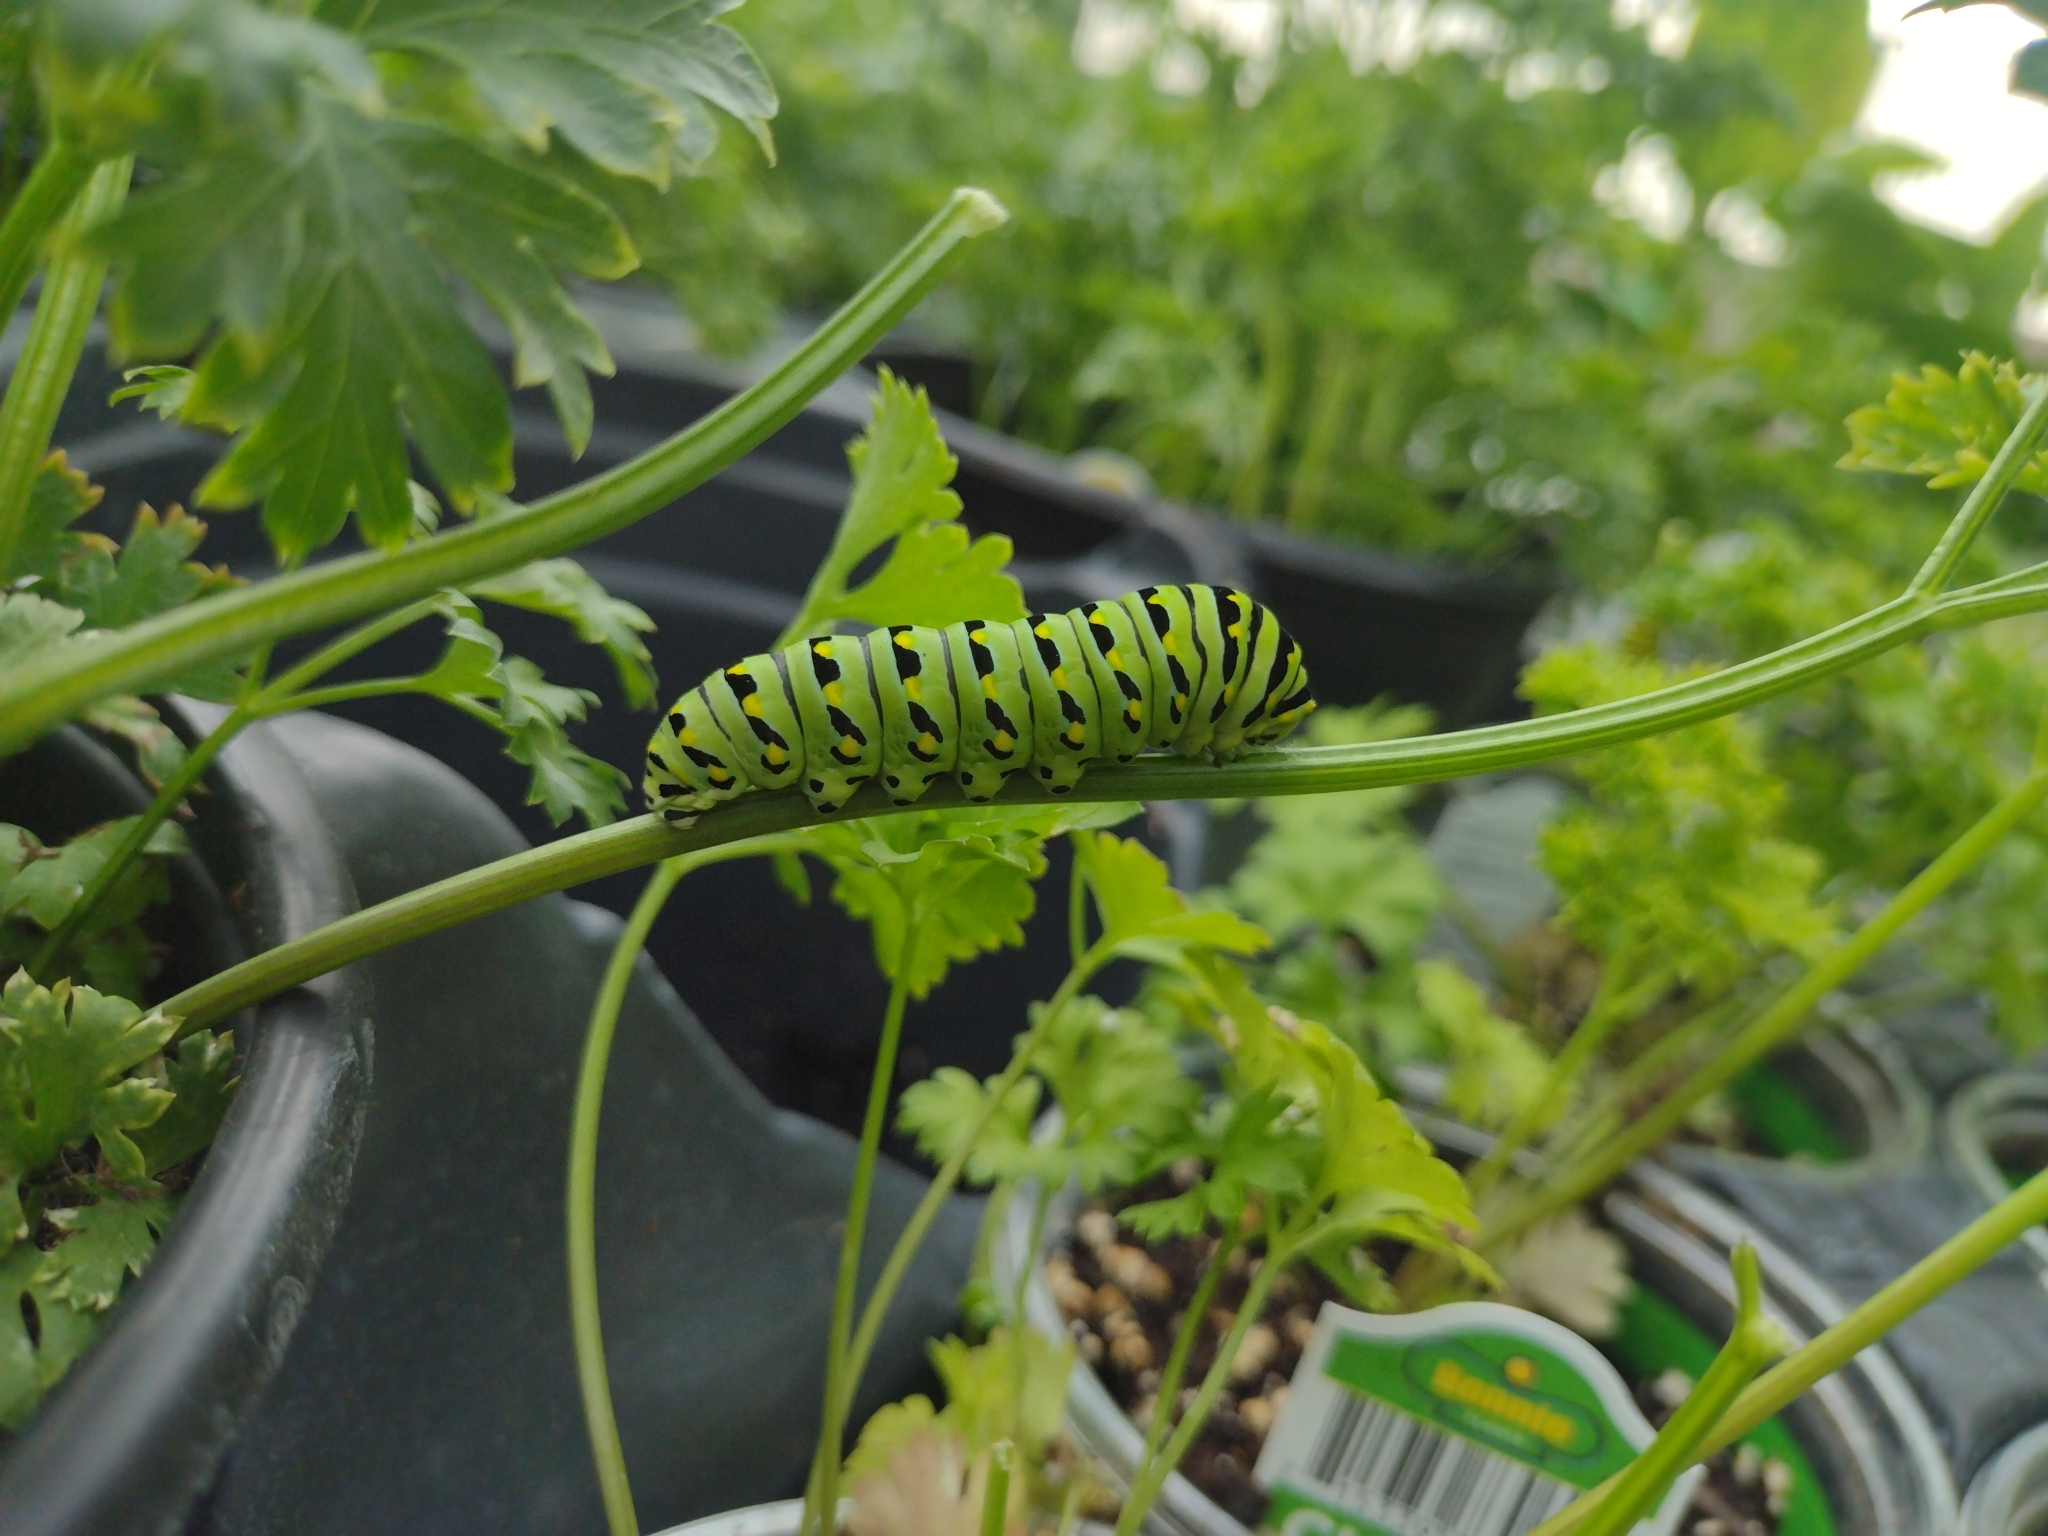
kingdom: Animalia
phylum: Arthropoda
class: Insecta
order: Lepidoptera
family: Papilionidae
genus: Papilio
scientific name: Papilio polyxenes
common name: Black swallowtail
